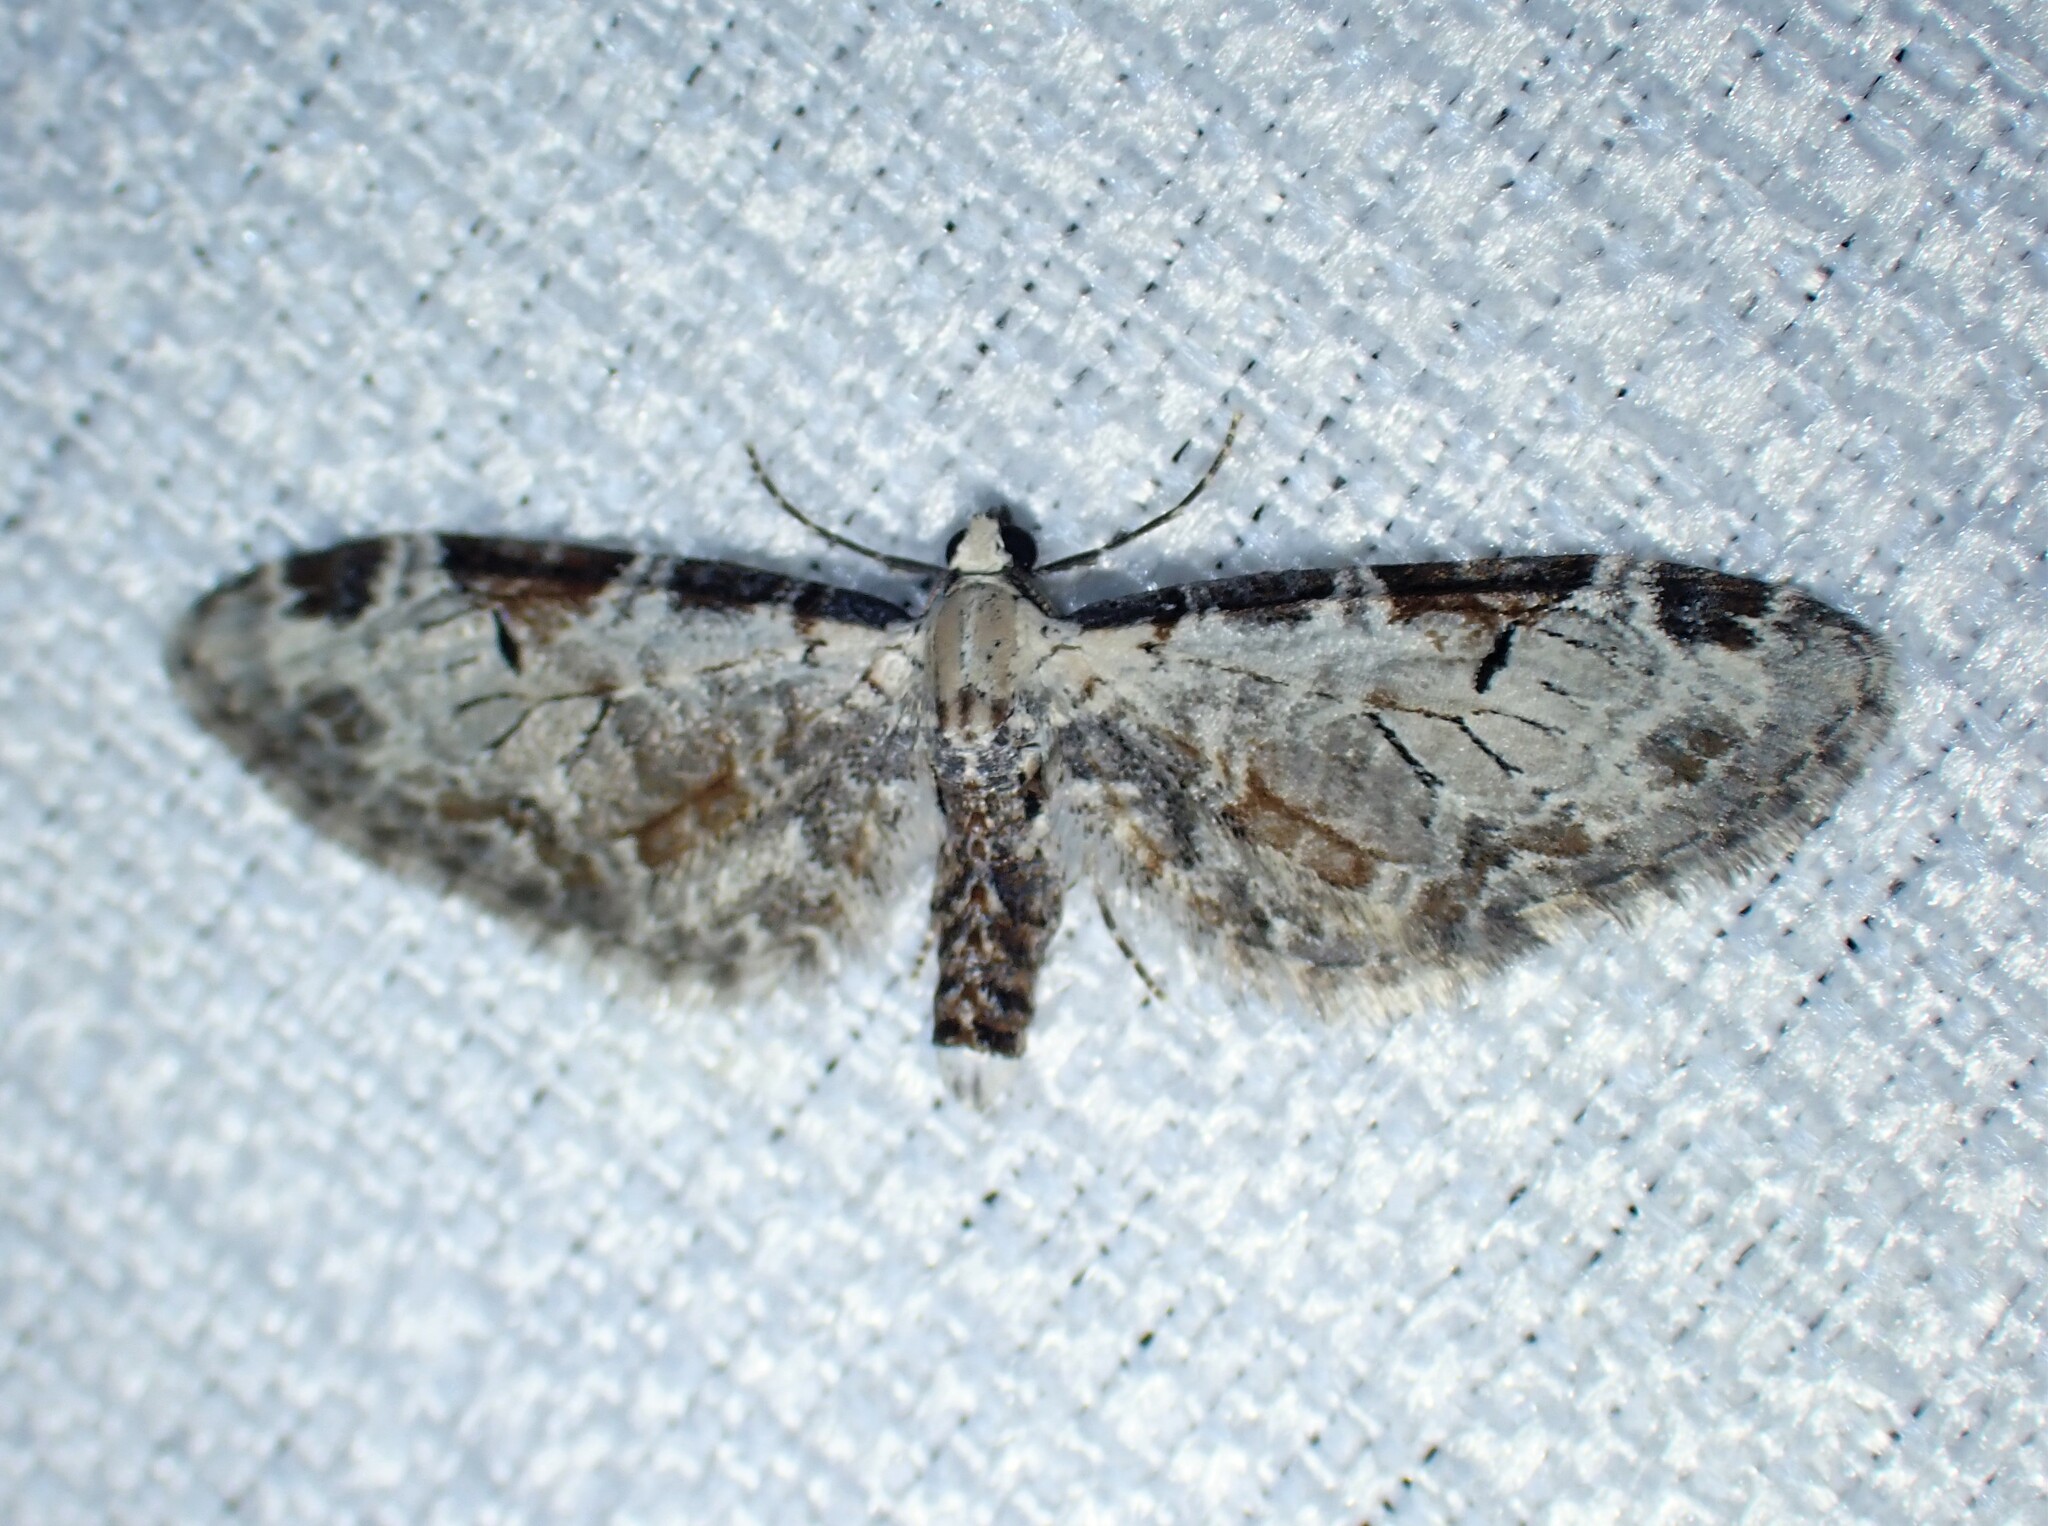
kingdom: Animalia
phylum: Arthropoda
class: Insecta
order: Lepidoptera
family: Geometridae
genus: Eupithecia
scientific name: Eupithecia ravocostaliata
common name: Great varigated pug
